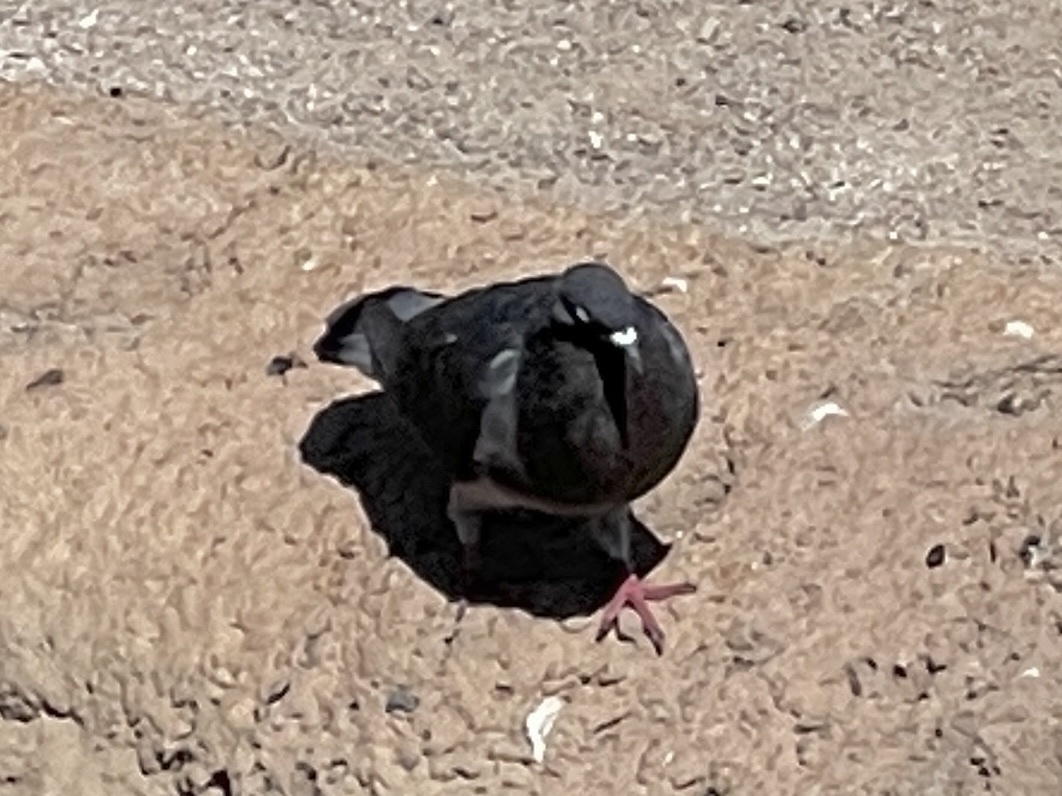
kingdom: Animalia
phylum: Chordata
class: Aves
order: Columbiformes
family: Columbidae
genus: Columba
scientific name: Columba livia
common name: Rock pigeon
